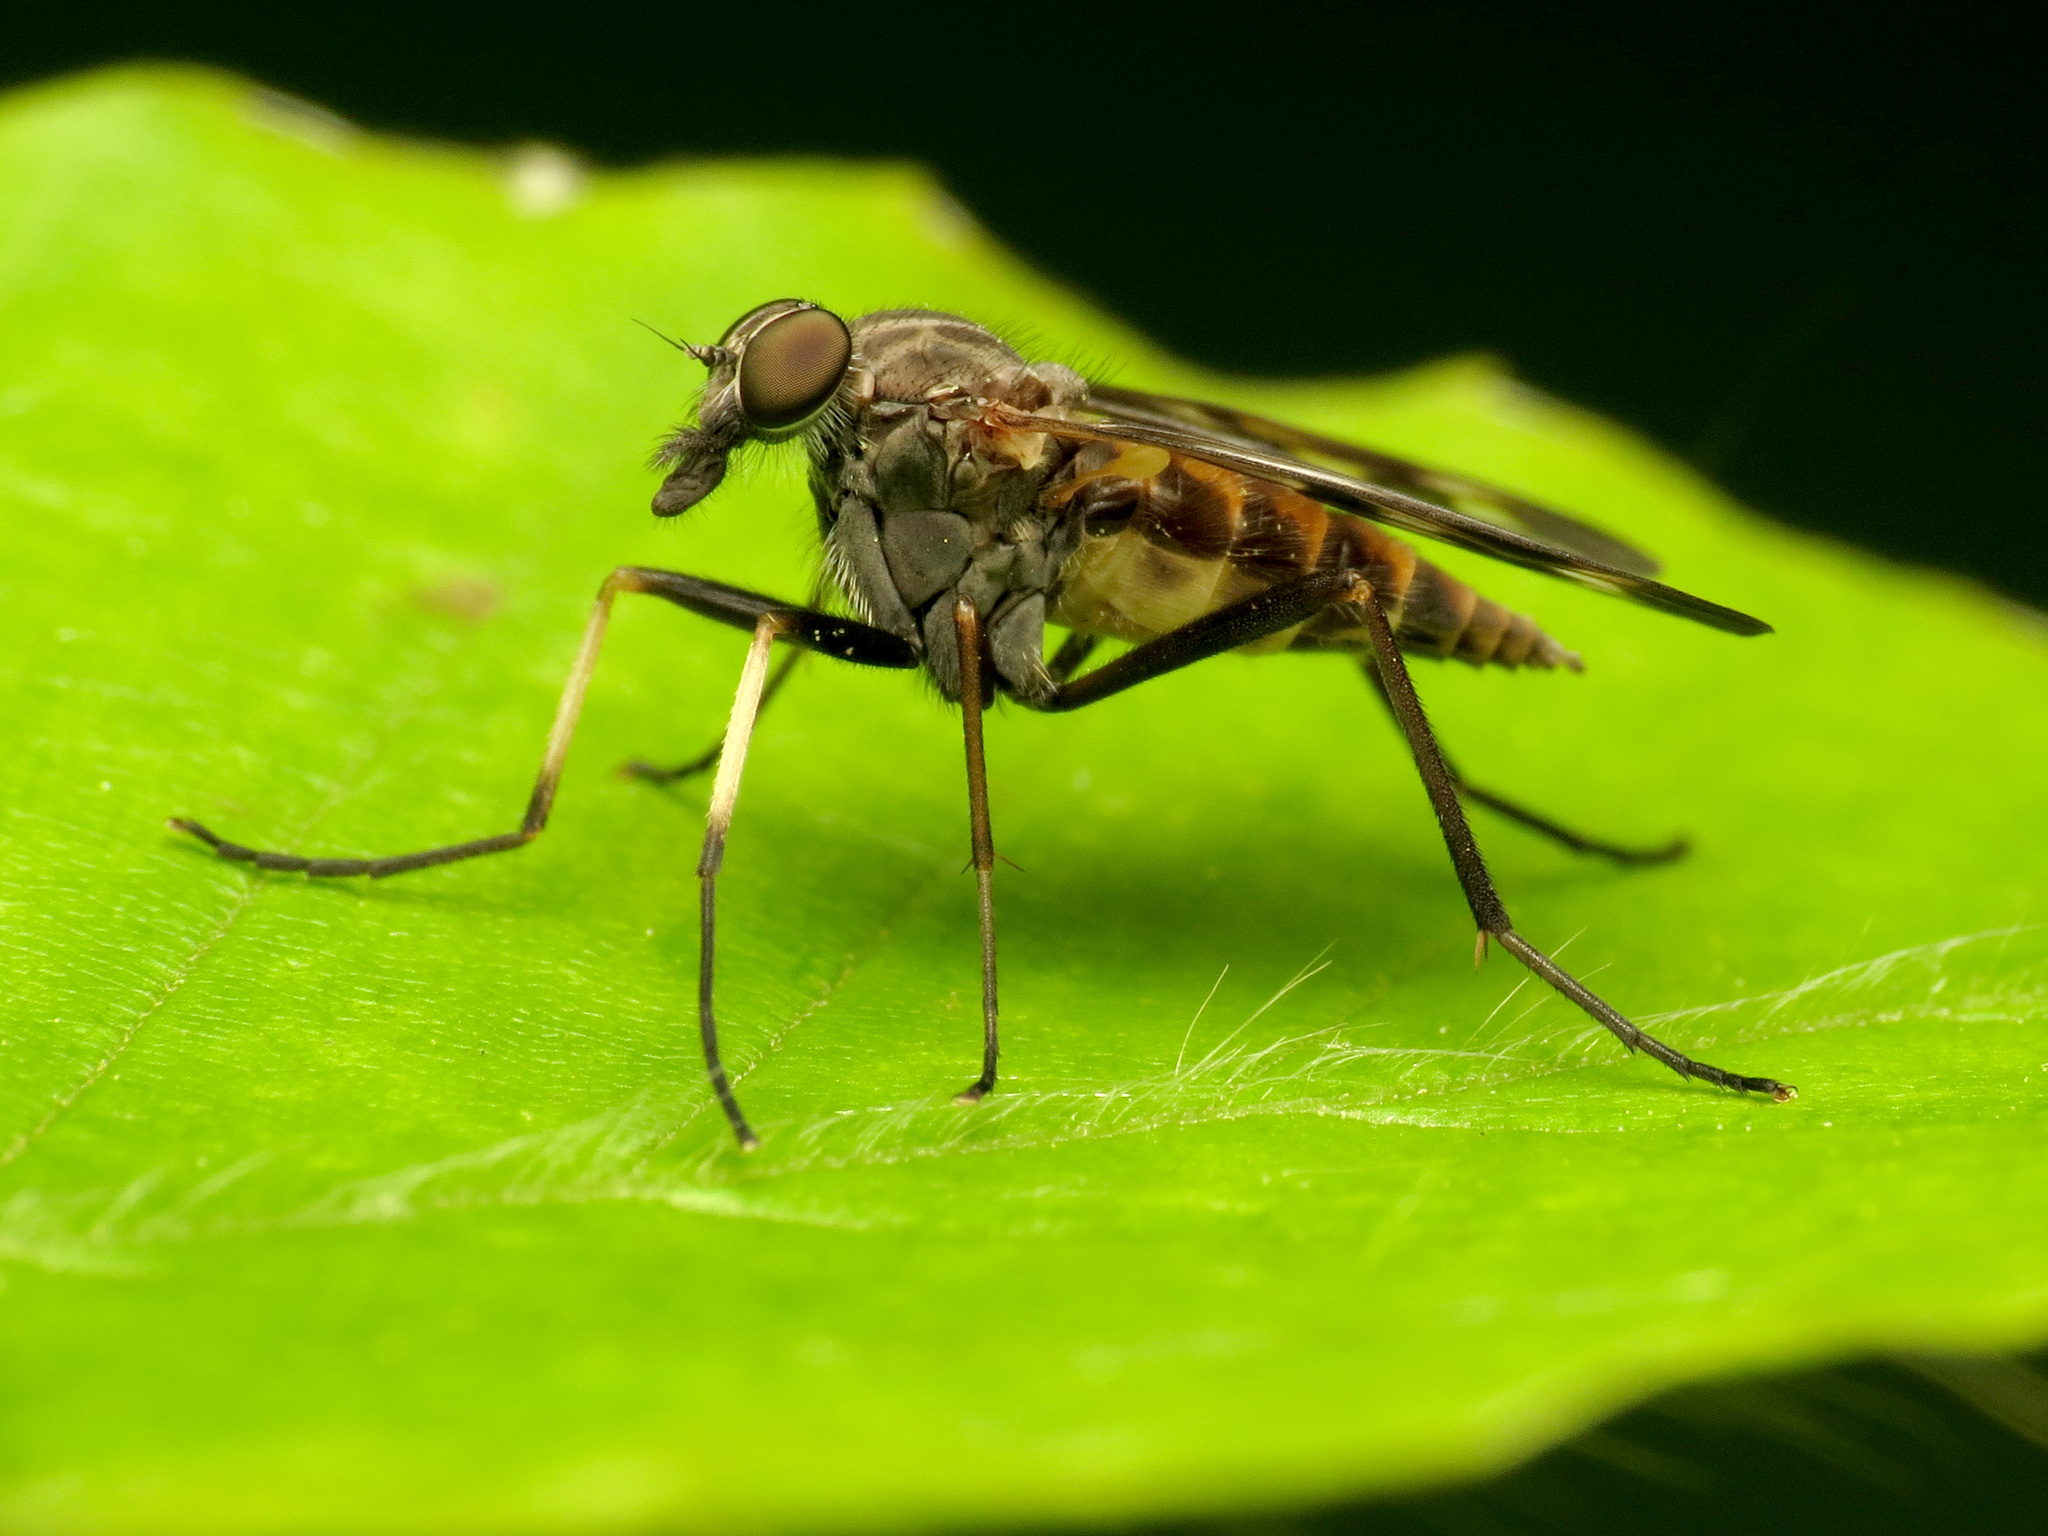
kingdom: Animalia
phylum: Arthropoda
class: Insecta
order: Diptera
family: Rhagionidae
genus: Rhagio
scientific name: Rhagio mystaceus
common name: Common snipe fly
